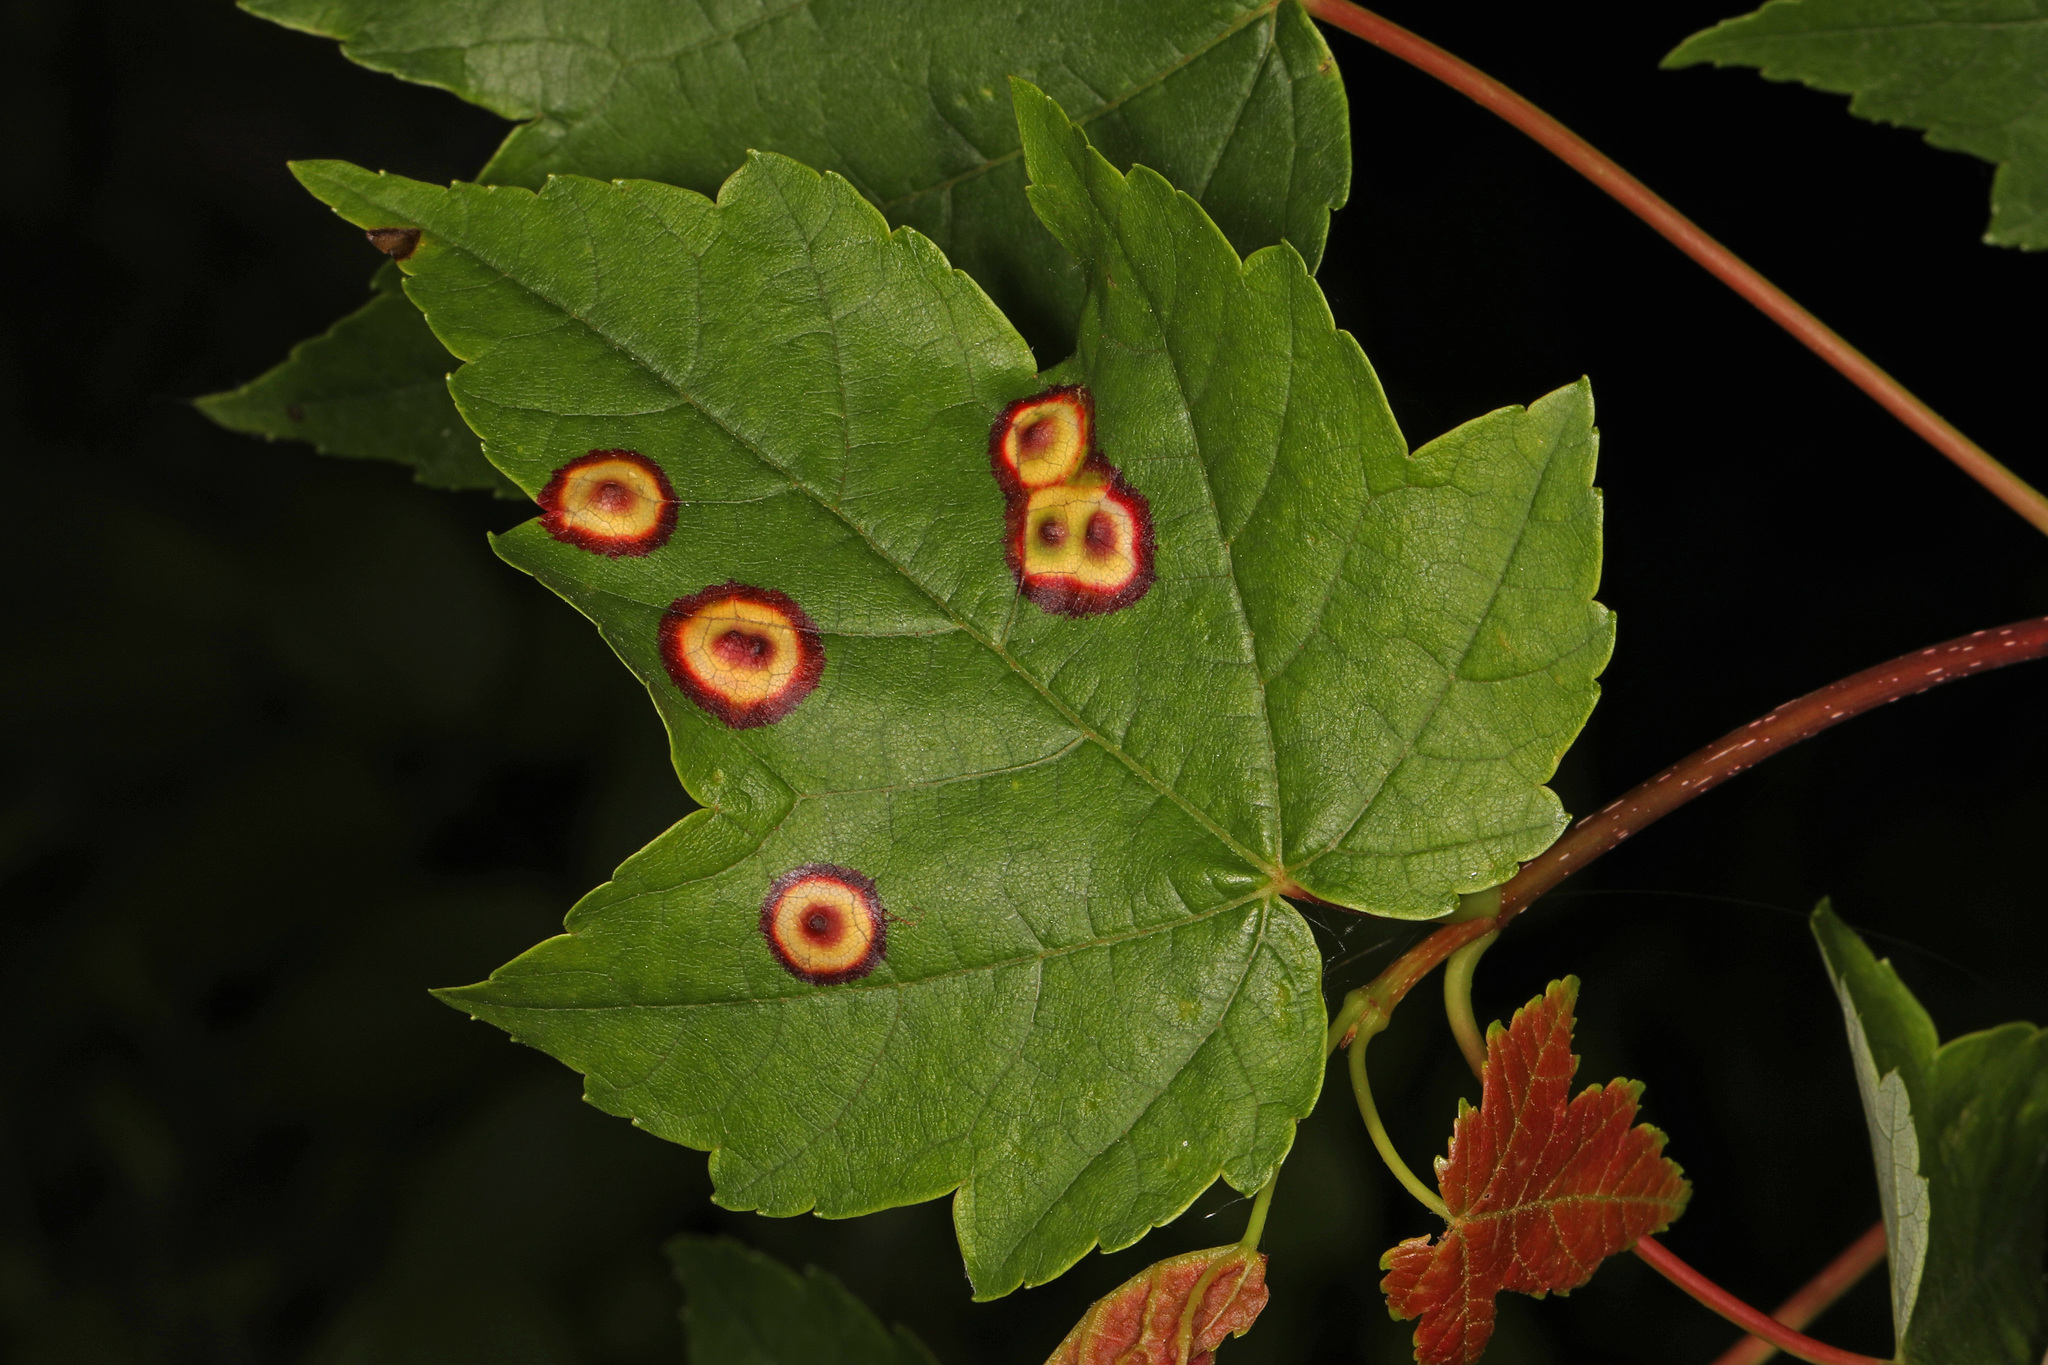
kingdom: Animalia
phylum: Arthropoda
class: Insecta
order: Diptera
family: Cecidomyiidae
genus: Acericecis
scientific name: Acericecis ocellaris
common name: Ocellate gall midge
